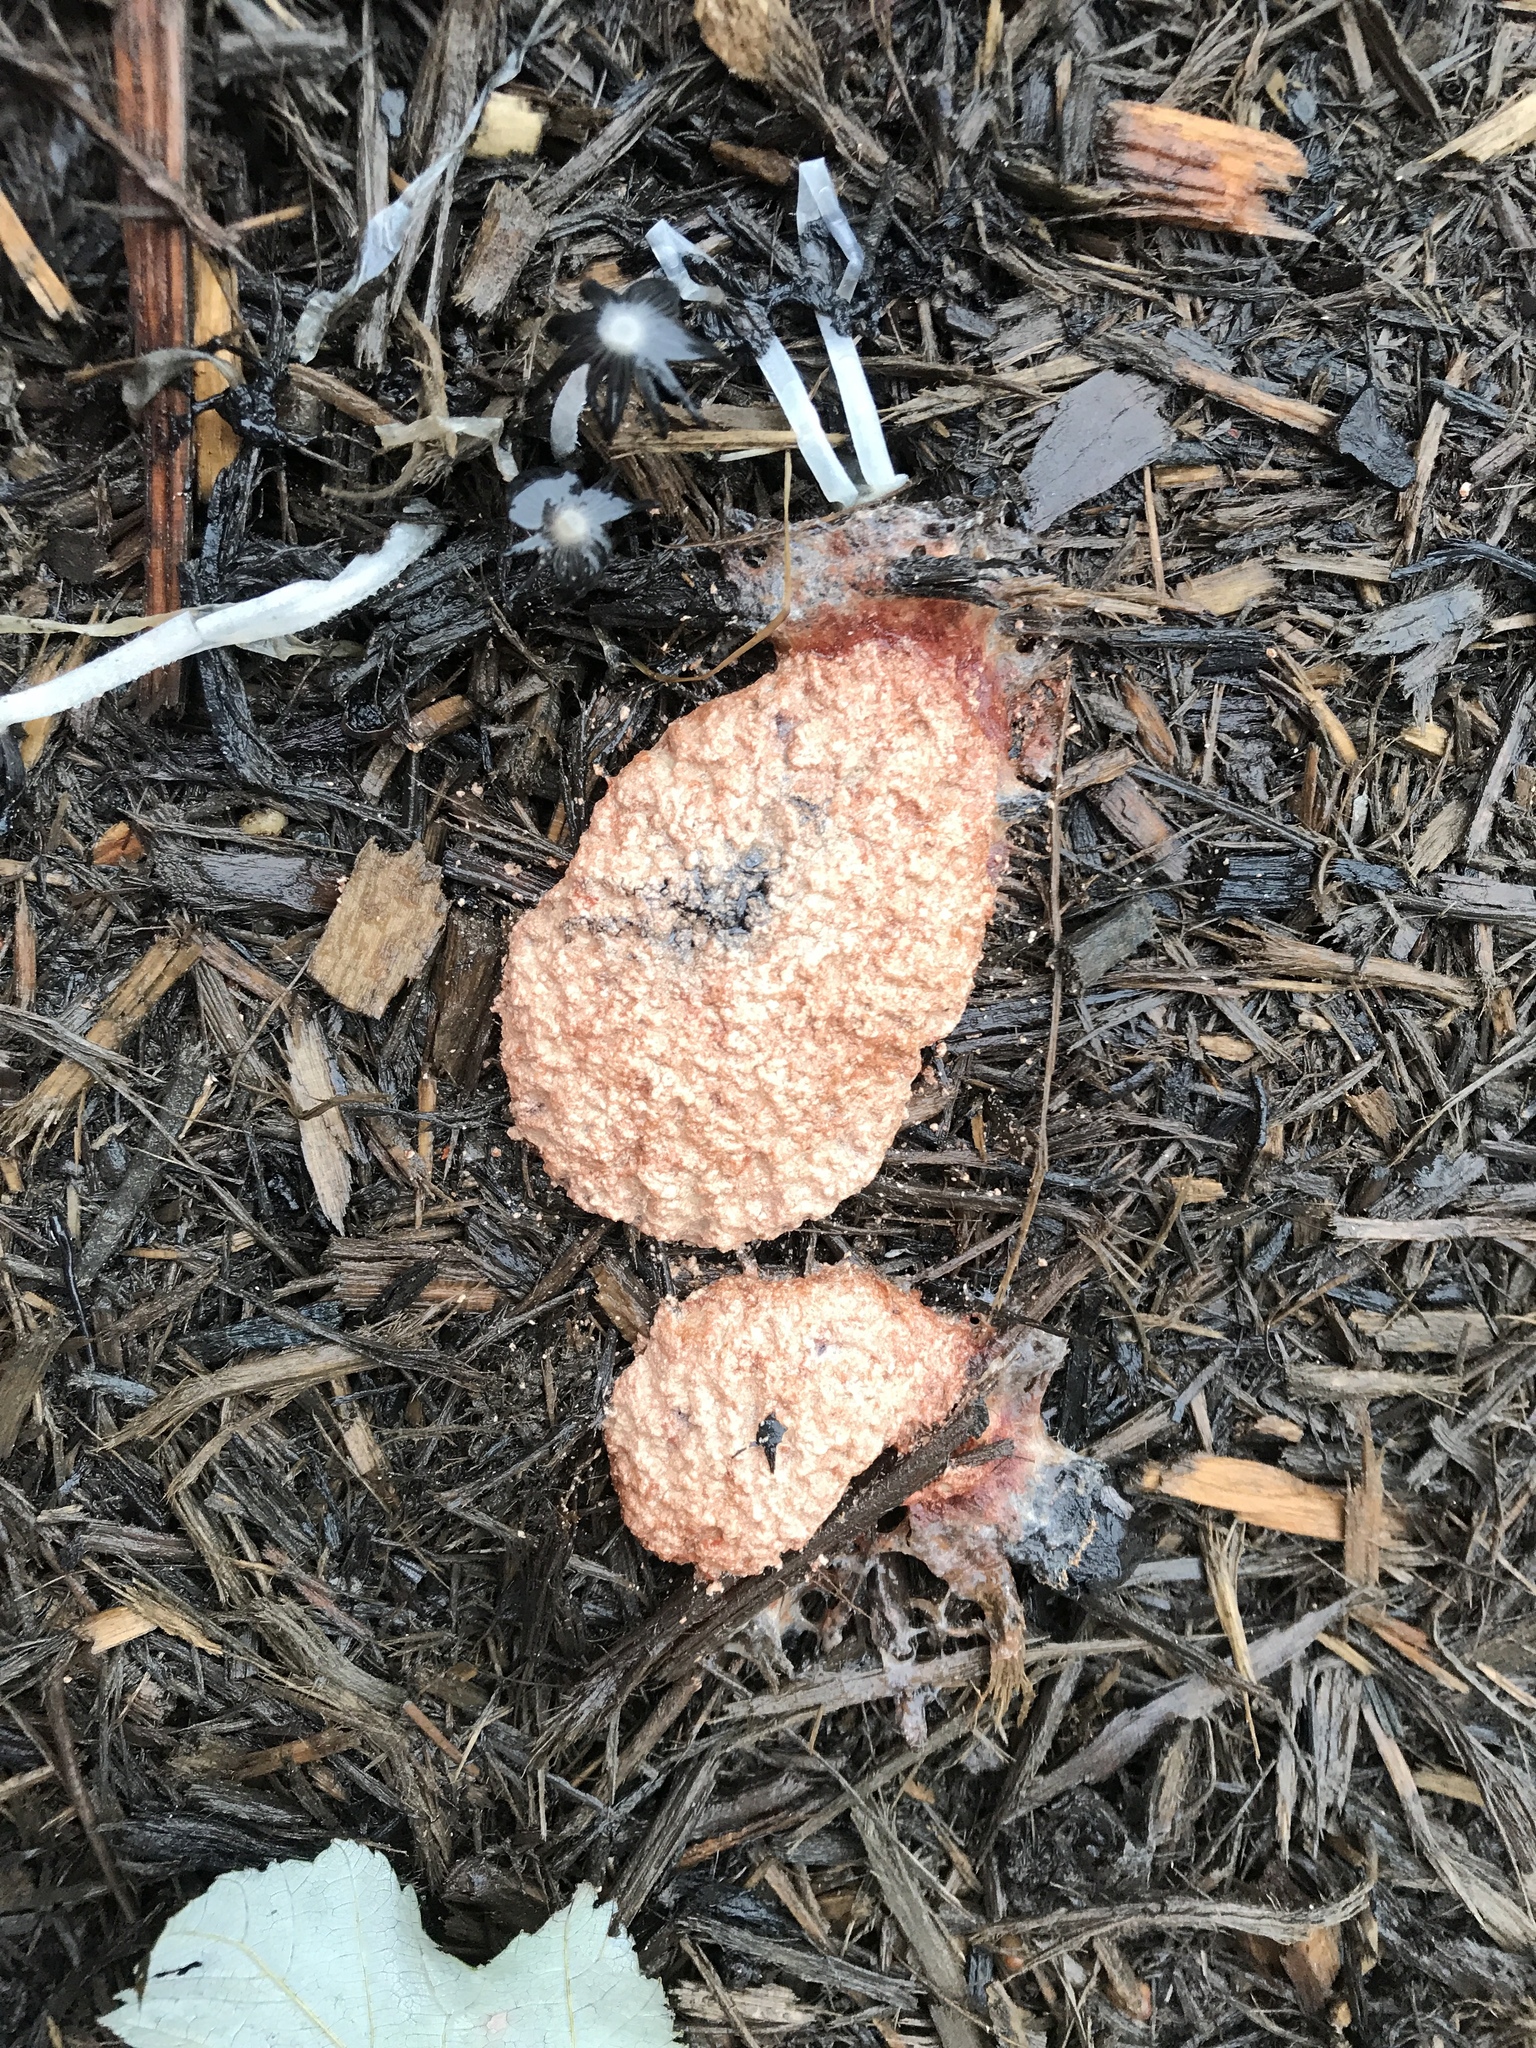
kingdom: Protozoa
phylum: Mycetozoa
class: Myxomycetes
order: Physarales
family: Physaraceae
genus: Fuligo
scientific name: Fuligo septica
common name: Dog vomit slime mold
